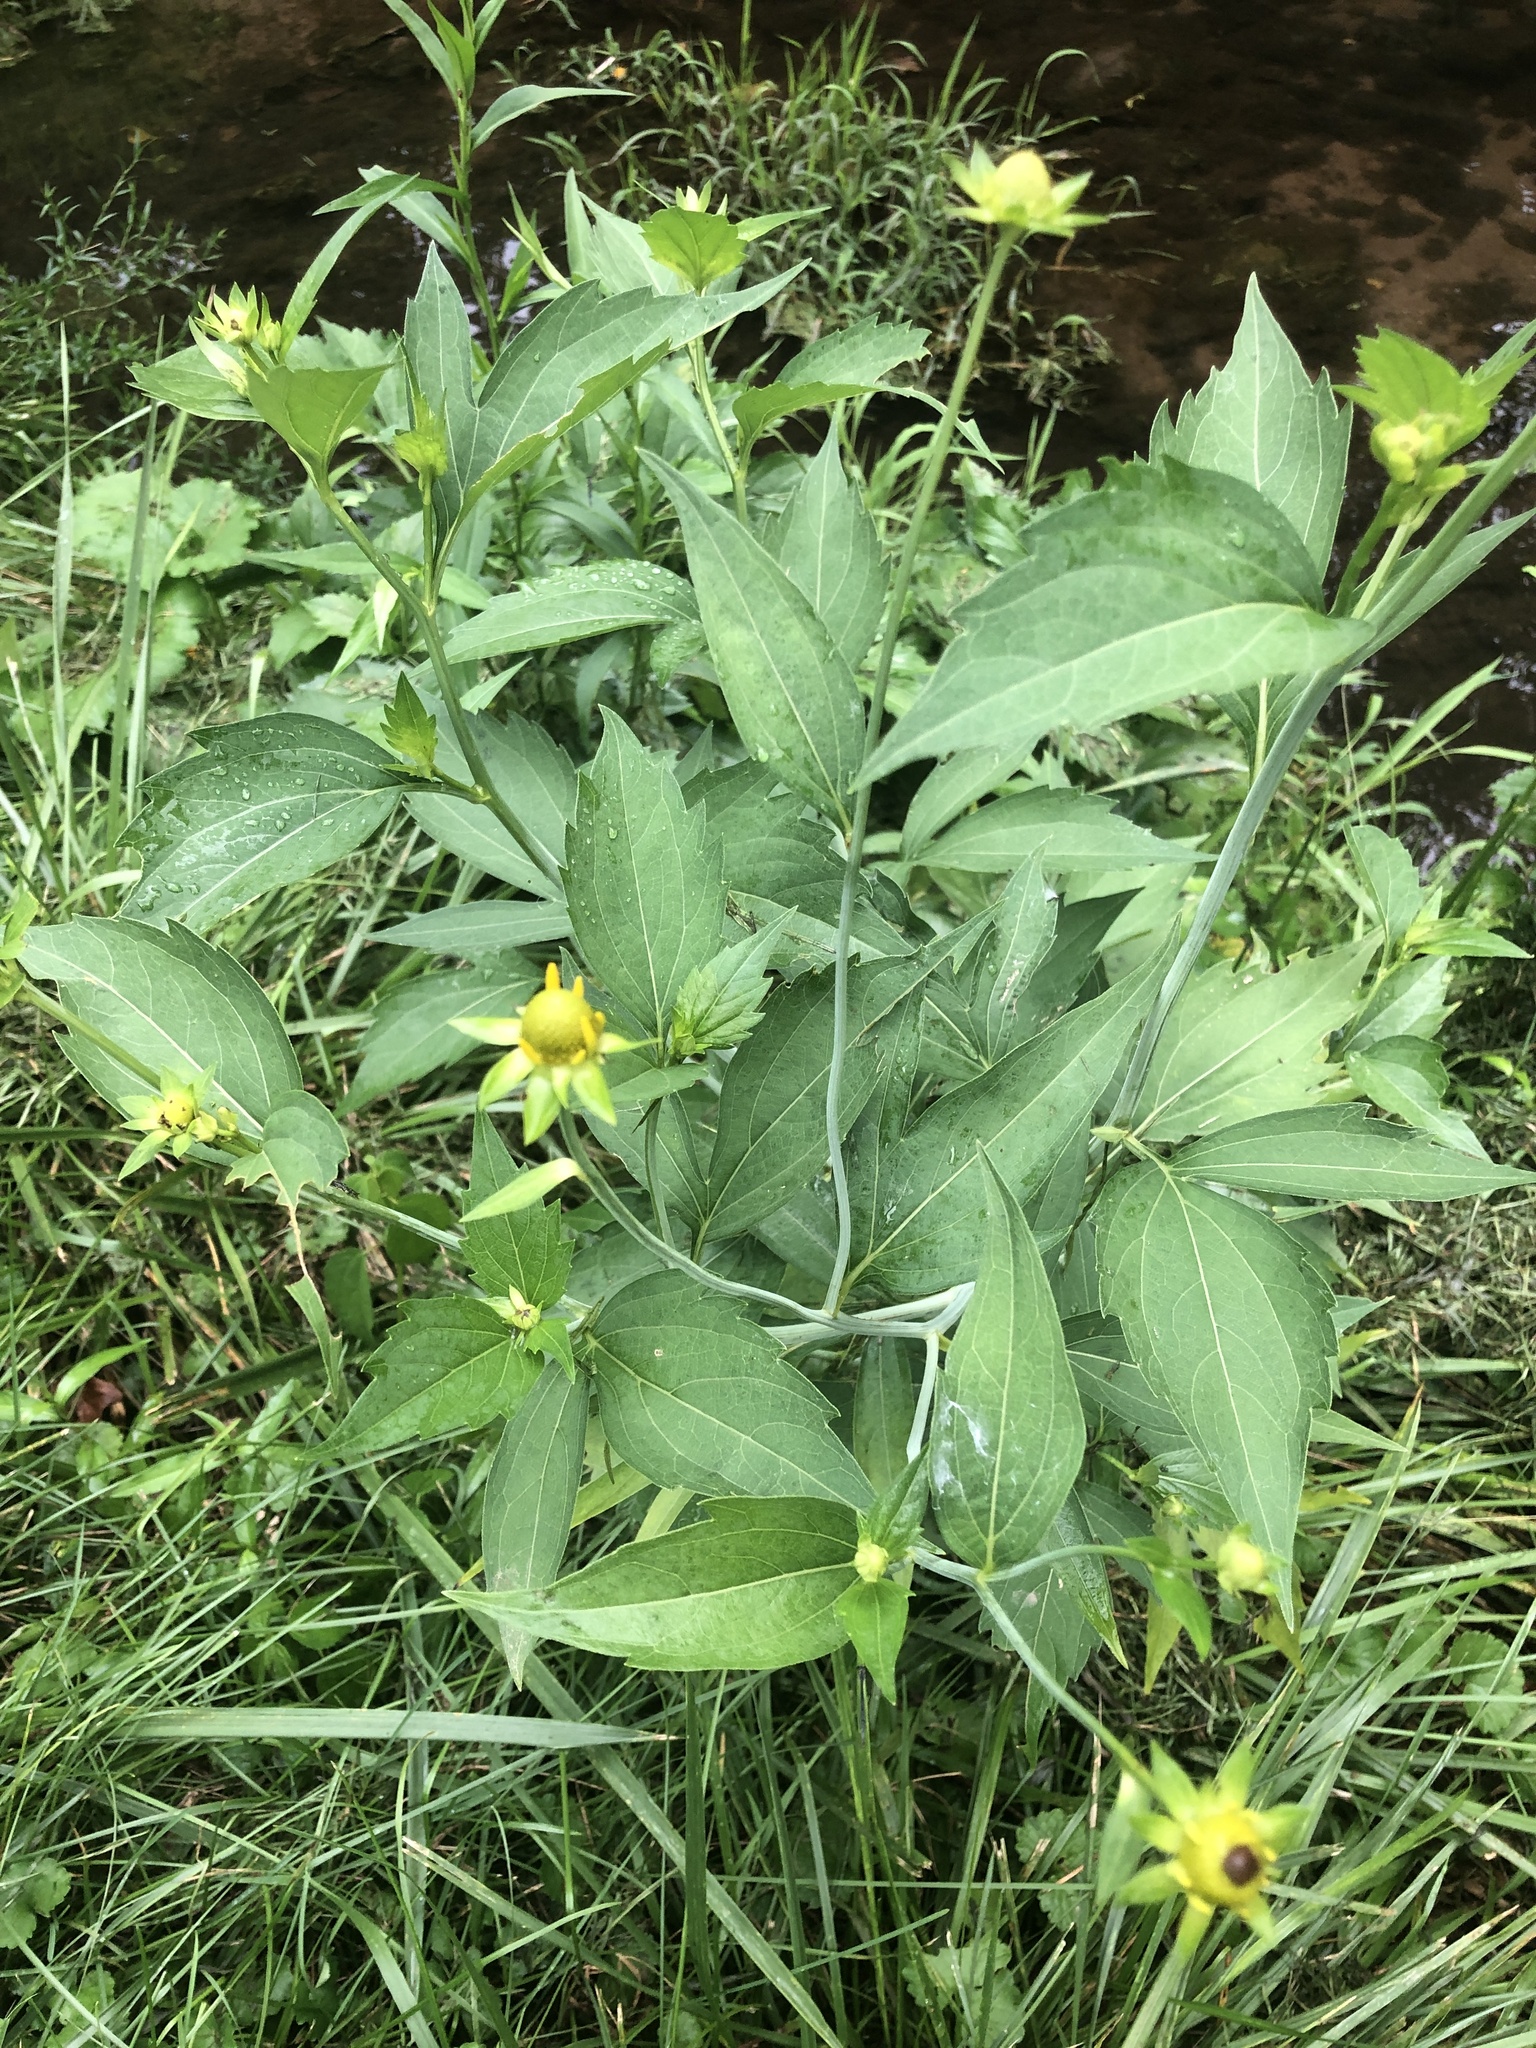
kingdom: Plantae
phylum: Tracheophyta
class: Magnoliopsida
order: Asterales
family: Asteraceae
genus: Rudbeckia
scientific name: Rudbeckia laciniata
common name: Coneflower
